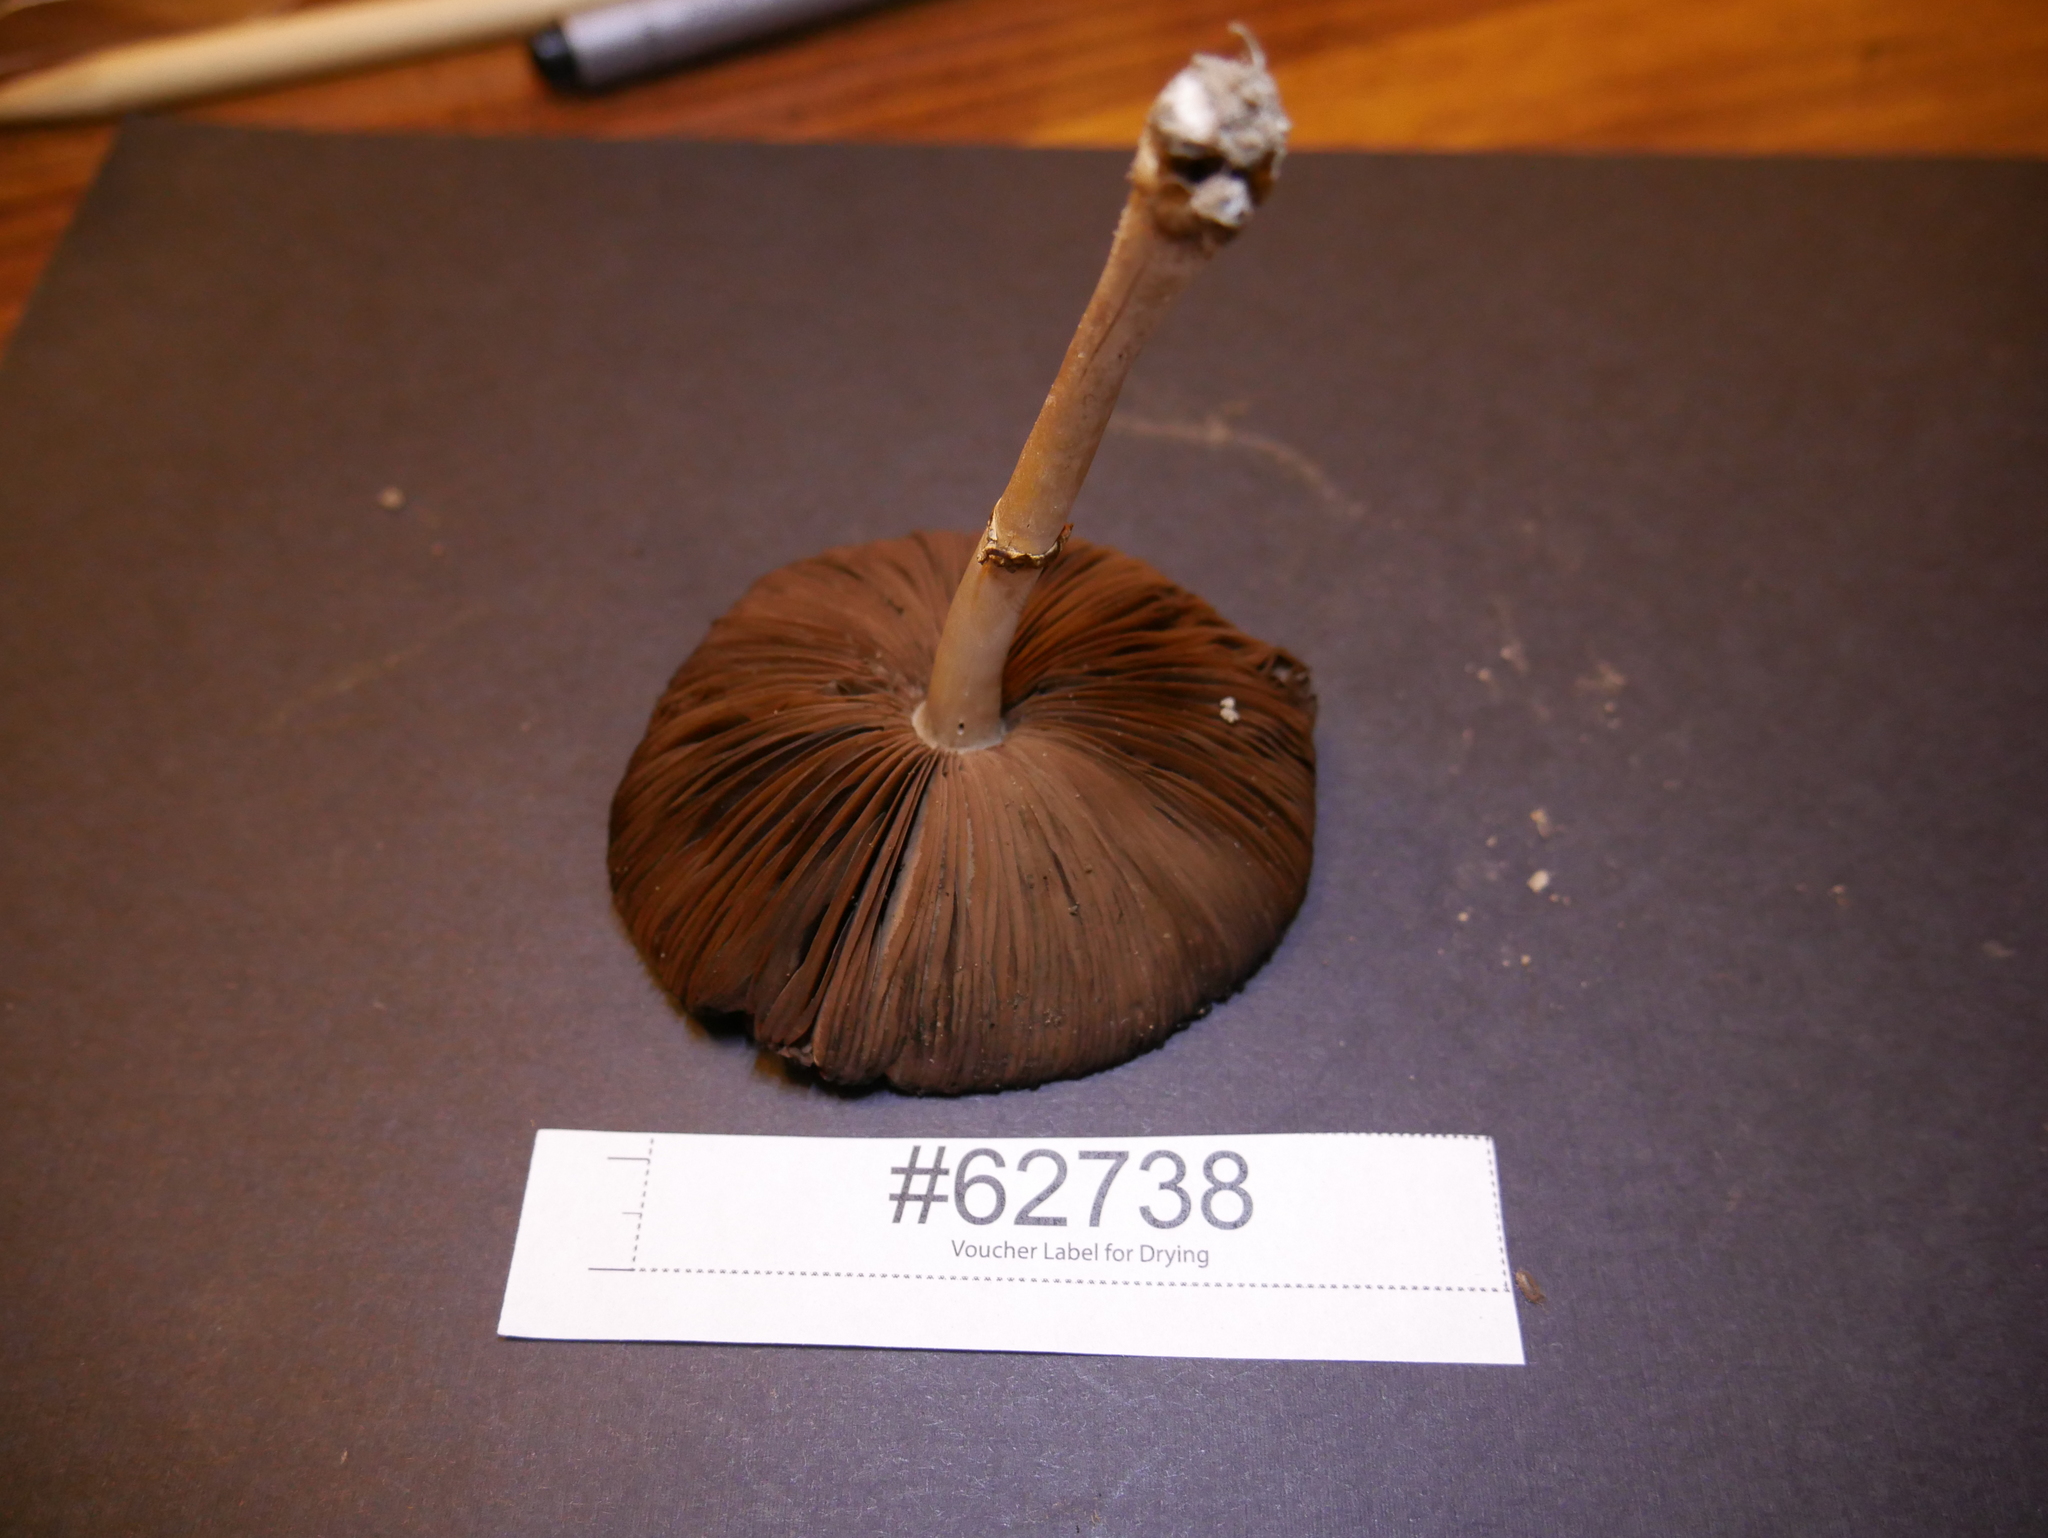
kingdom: Fungi
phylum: Basidiomycota
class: Agaricomycetes
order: Agaricales
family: Agaricaceae
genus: Agaricus
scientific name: Agaricus bellanniae
